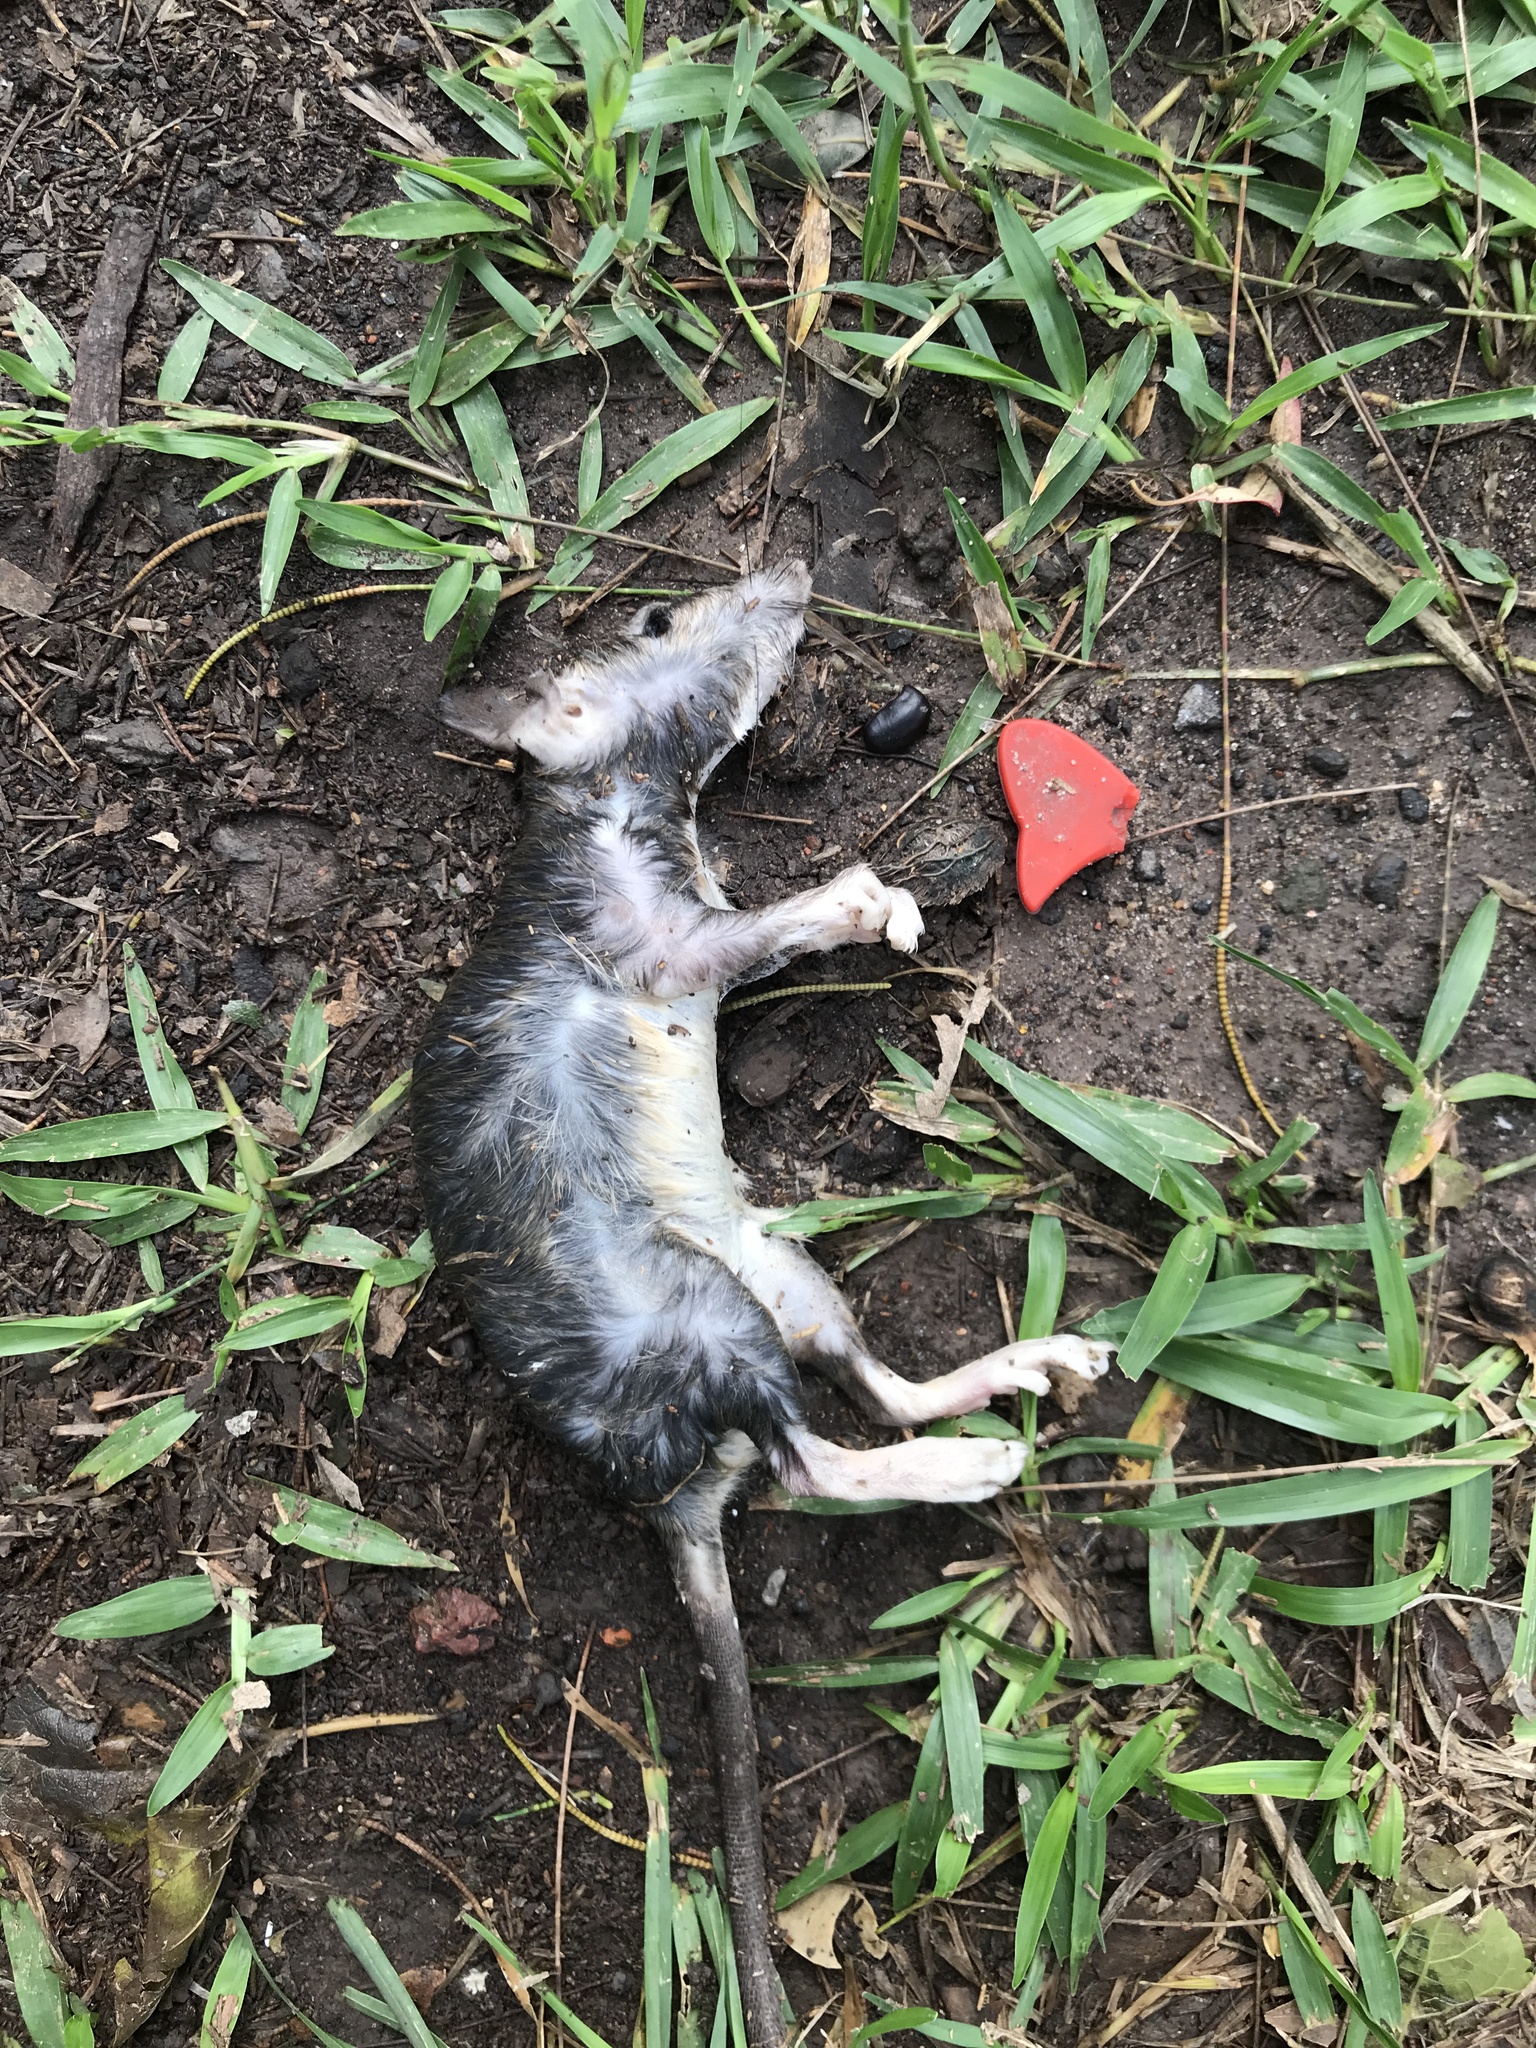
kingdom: Animalia
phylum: Chordata
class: Mammalia
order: Rodentia
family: Muridae
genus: Rattus
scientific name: Rattus rattus
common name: Black rat
